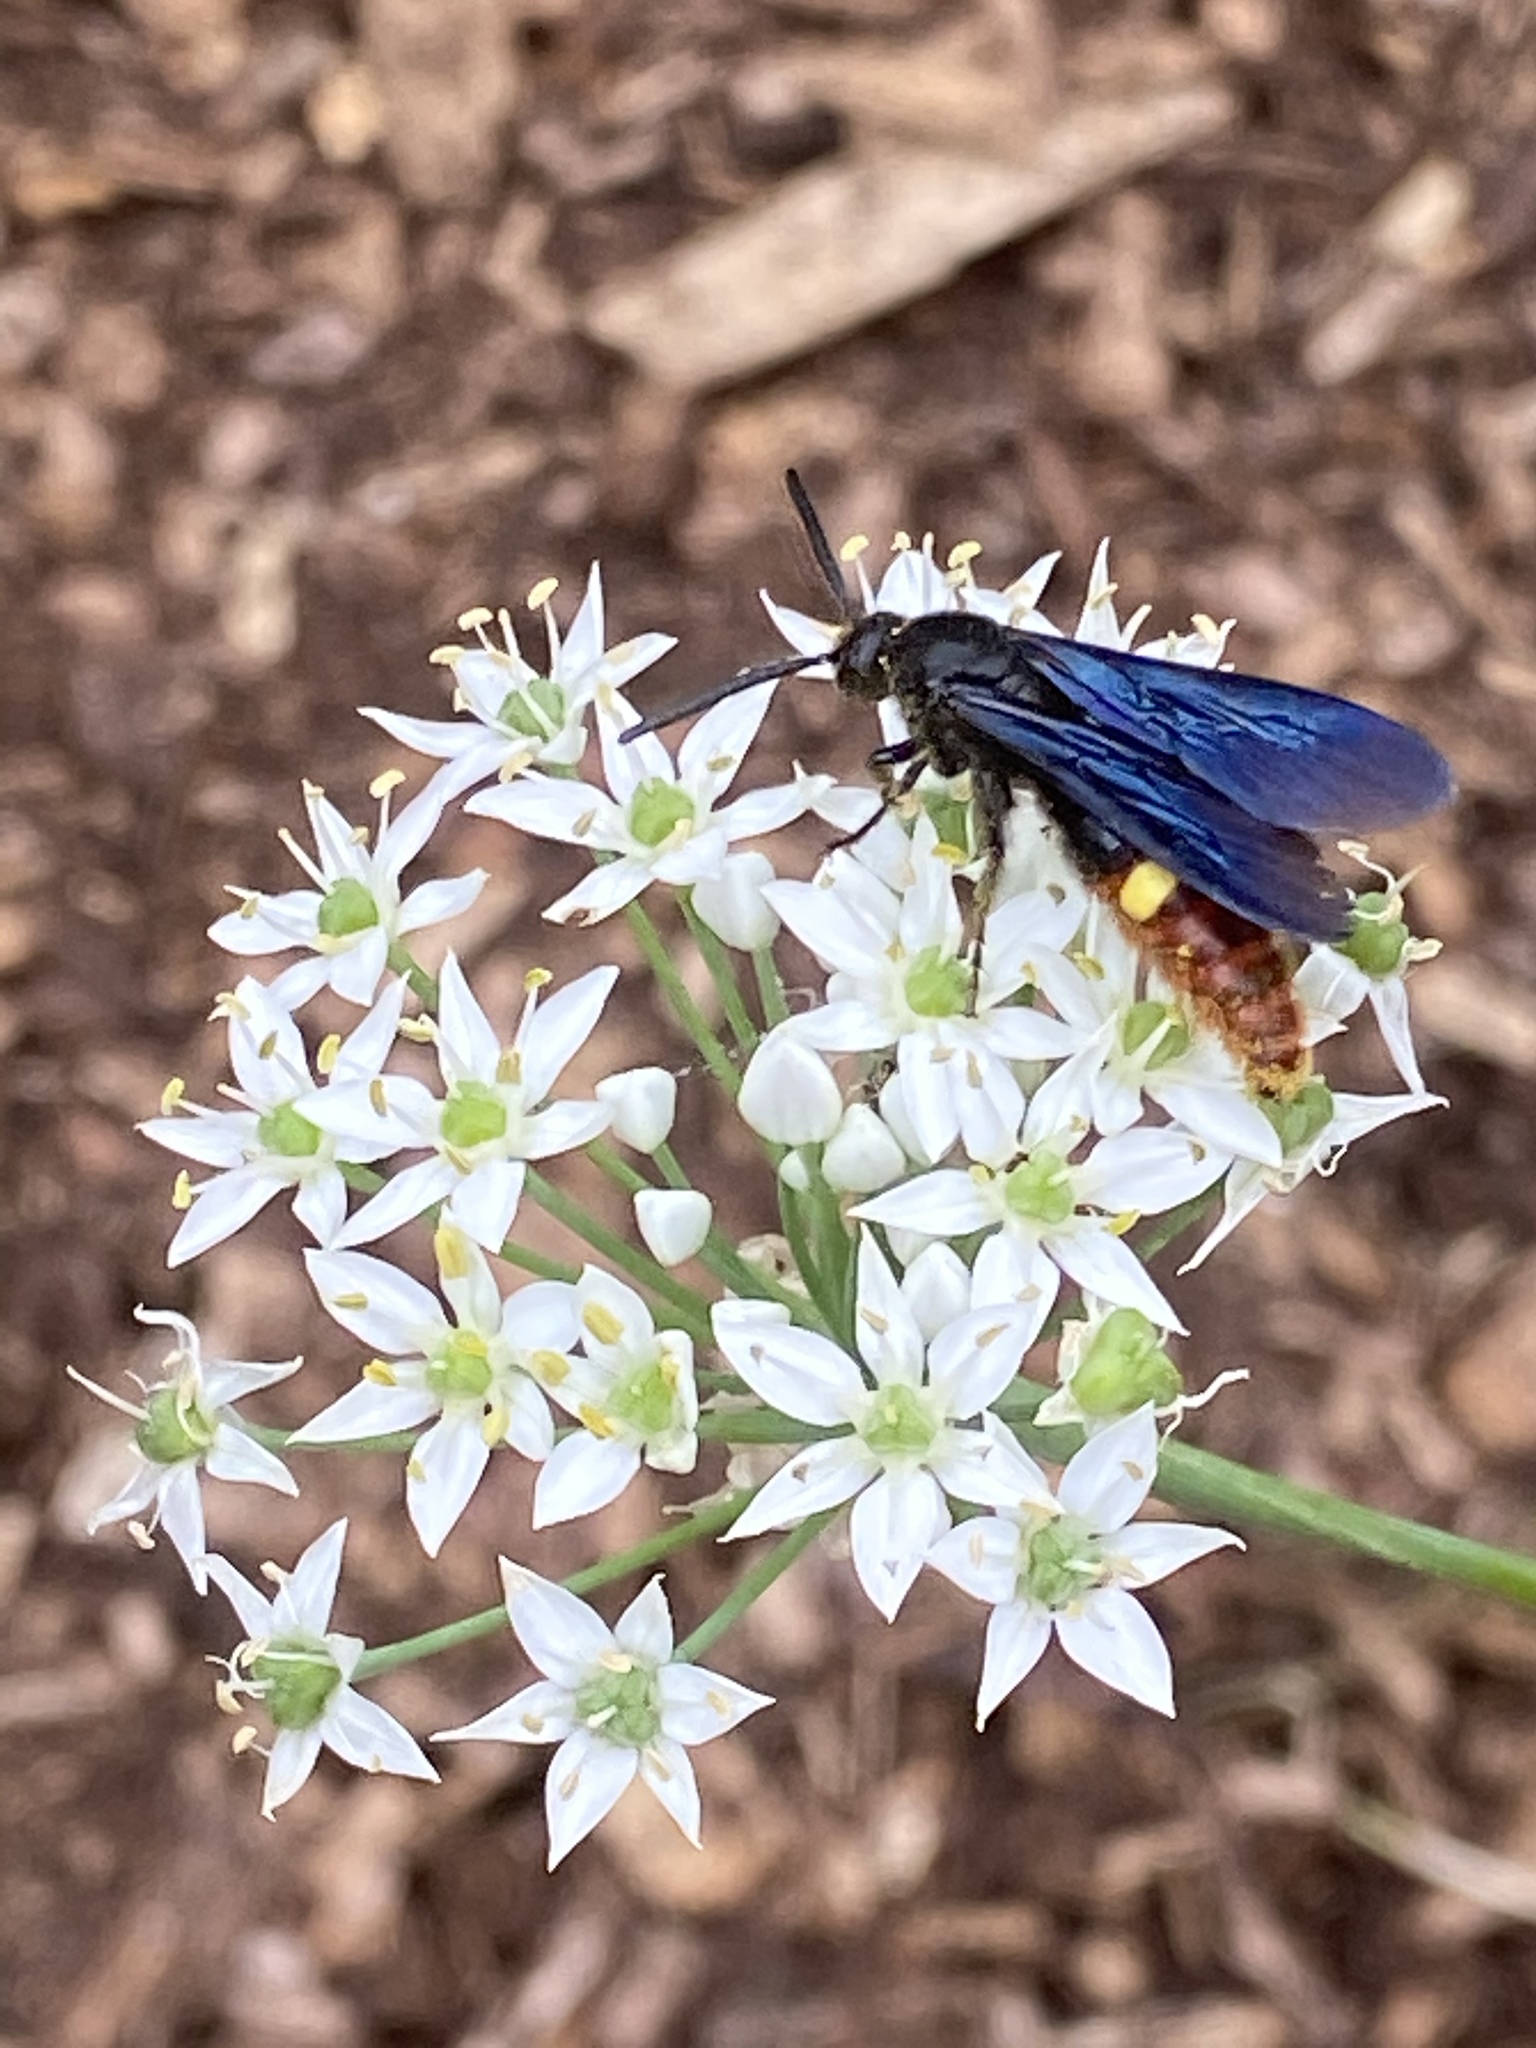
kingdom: Animalia
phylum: Arthropoda
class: Insecta
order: Hymenoptera
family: Scoliidae
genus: Scolia
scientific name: Scolia dubia
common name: Blue-winged scoliid wasp
